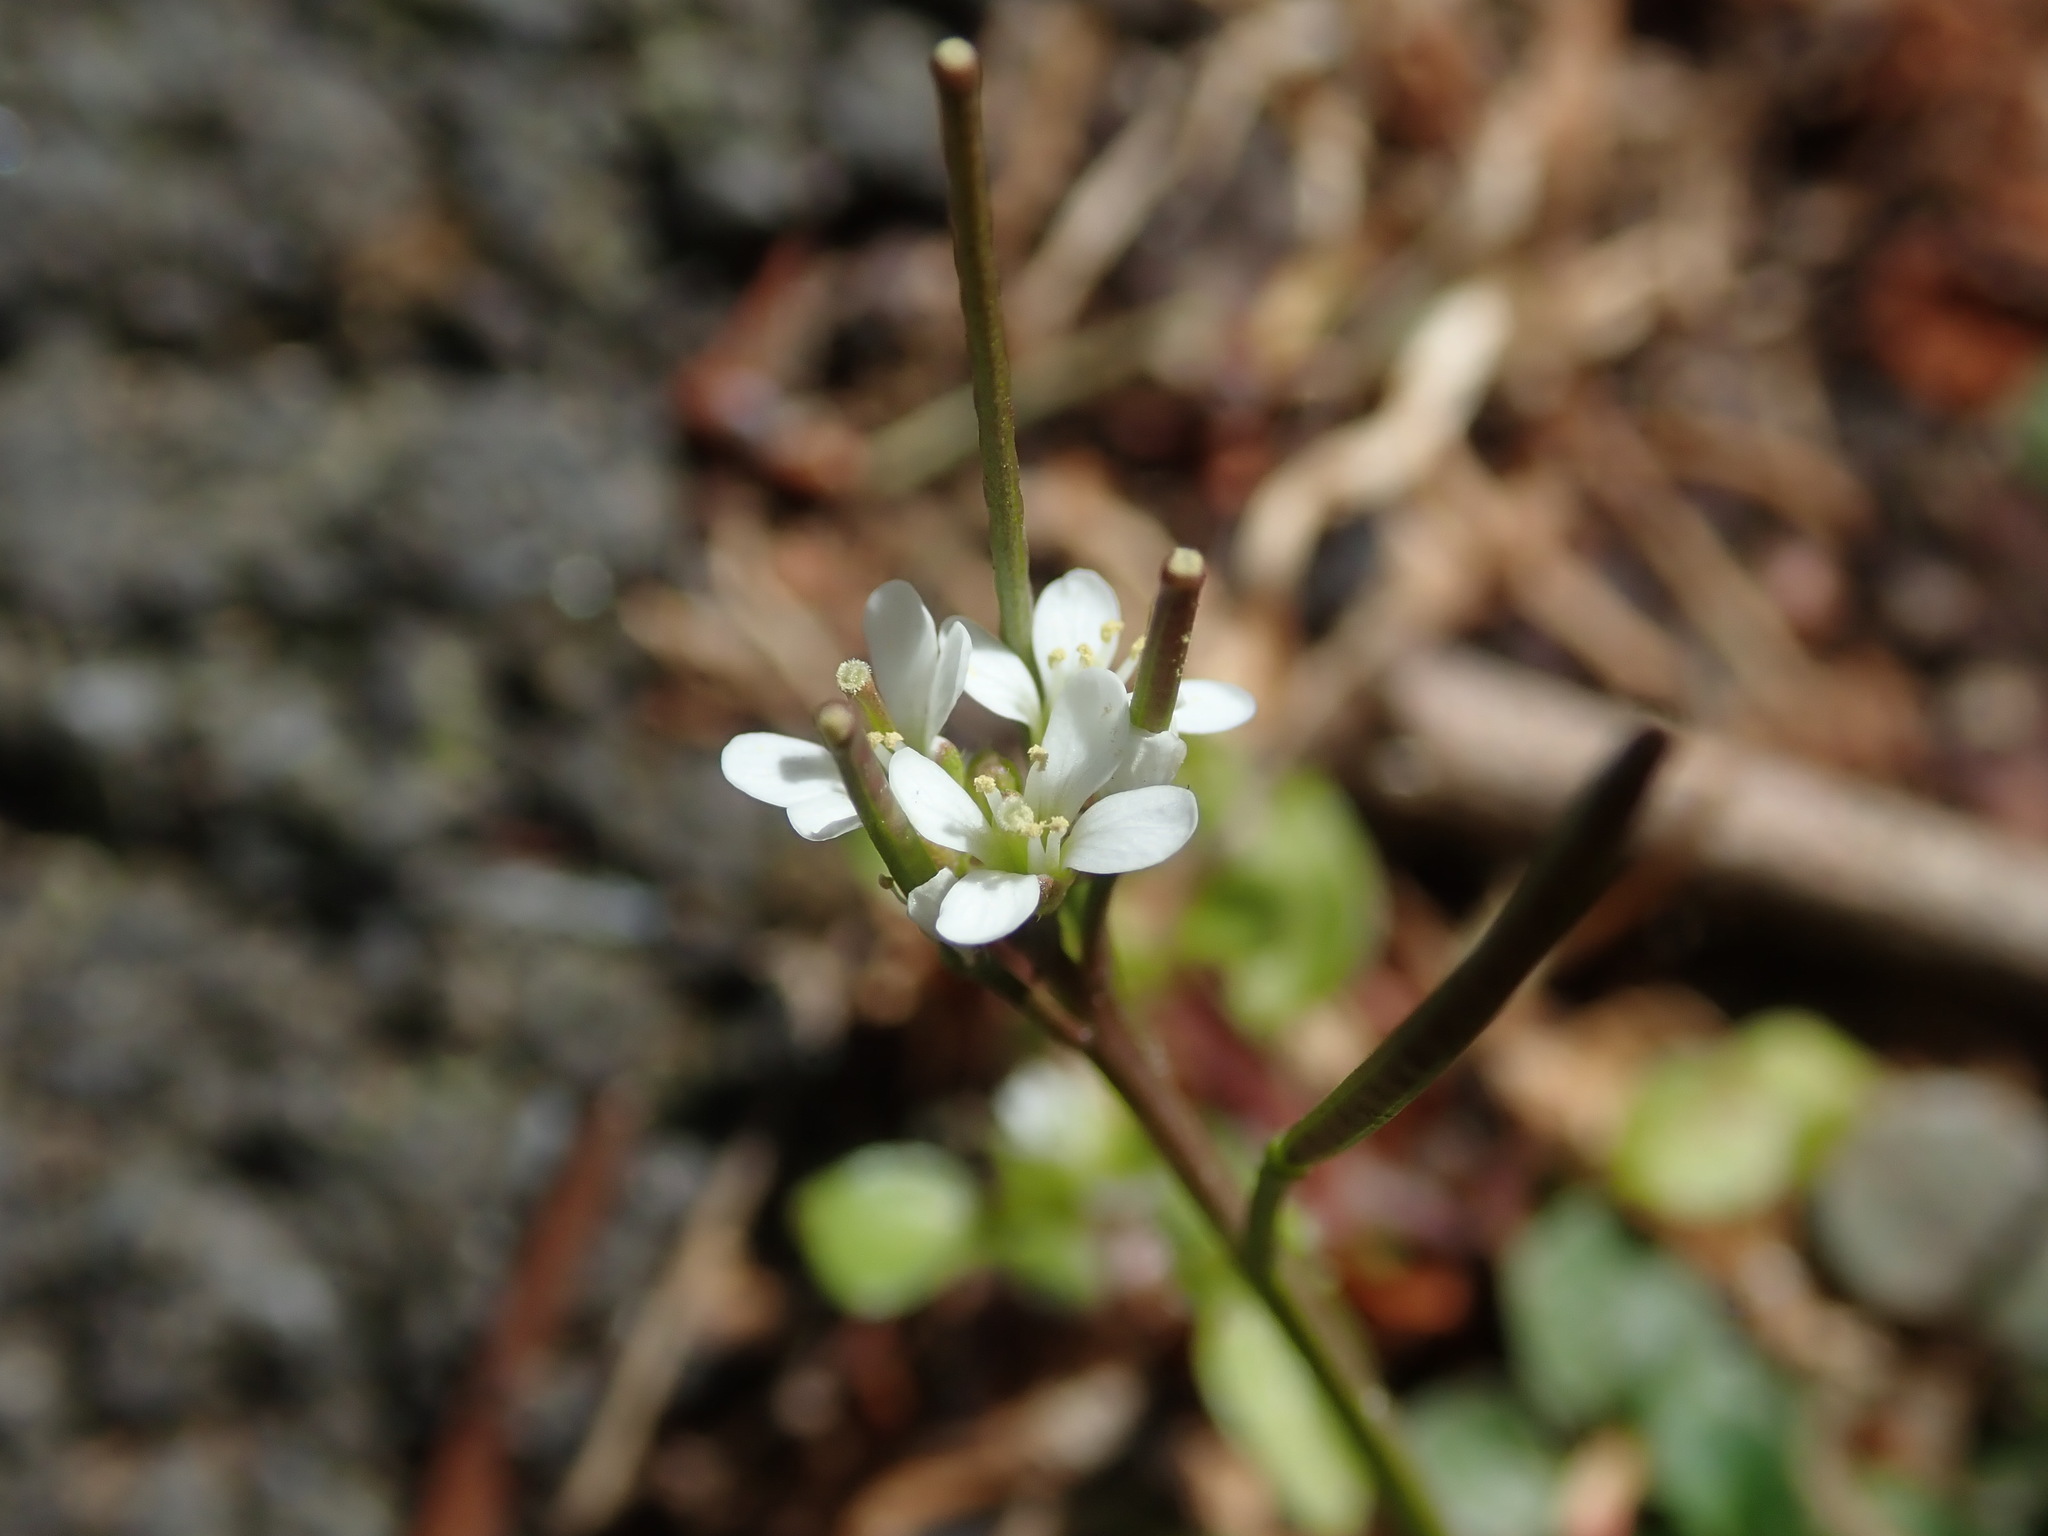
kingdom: Plantae
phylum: Tracheophyta
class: Magnoliopsida
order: Brassicales
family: Brassicaceae
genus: Cardamine
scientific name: Cardamine hirsuta
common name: Hairy bittercress
